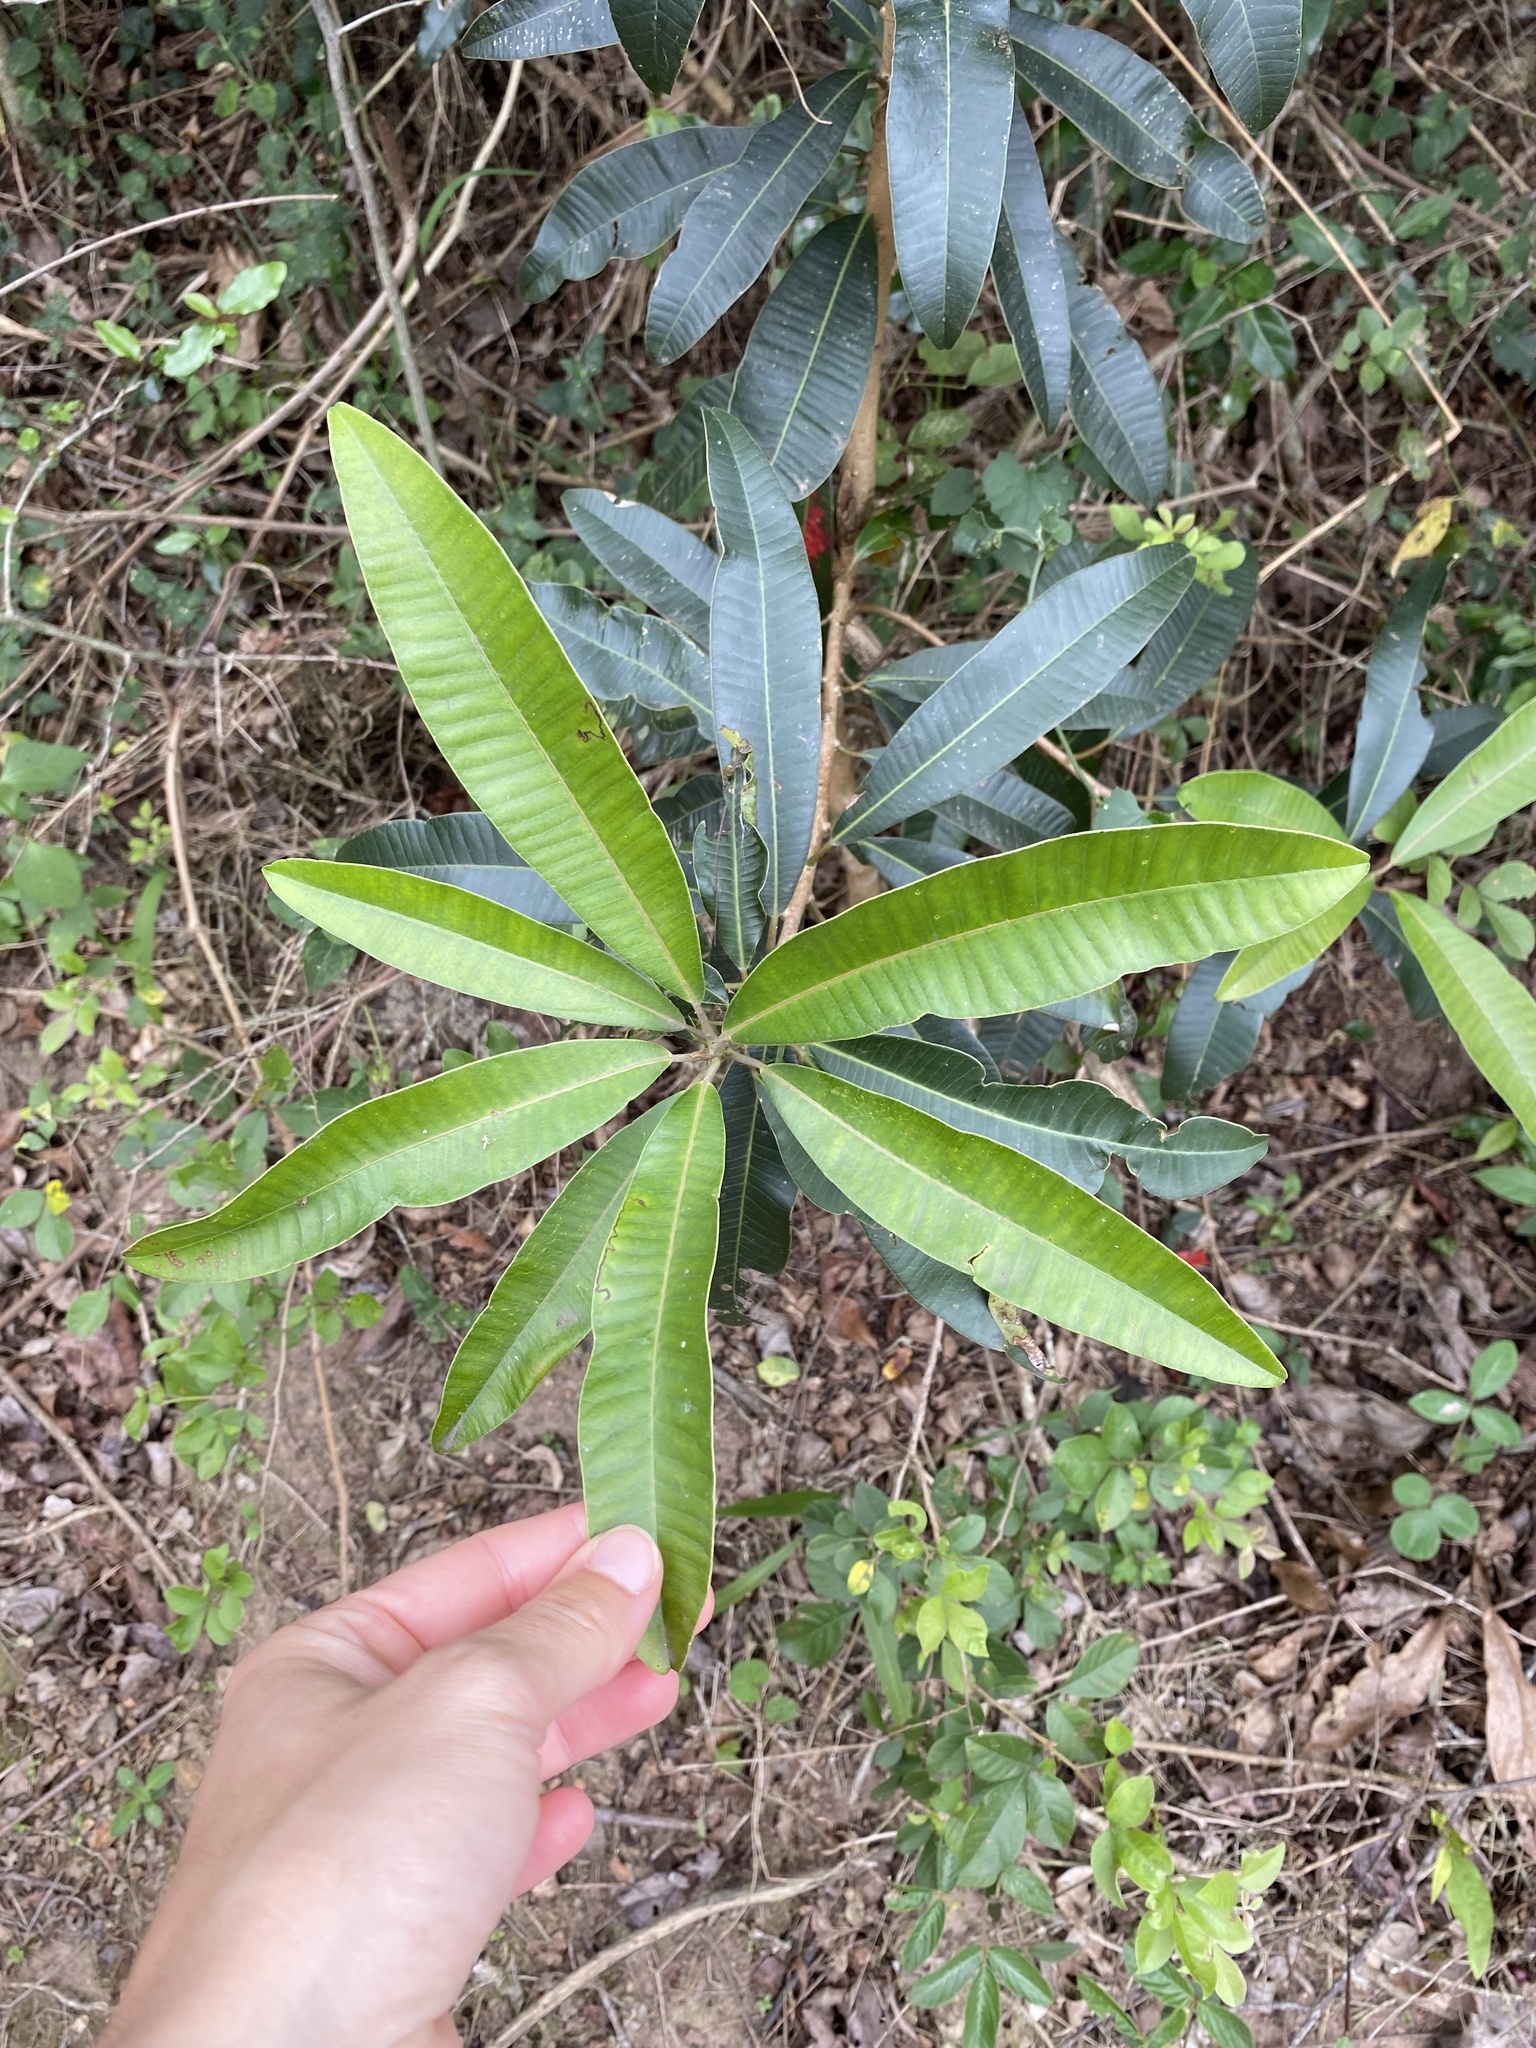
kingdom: Plantae
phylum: Tracheophyta
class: Magnoliopsida
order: Sapindales
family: Anacardiaceae
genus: Protorhus
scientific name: Protorhus longifolia
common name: Red-beech
